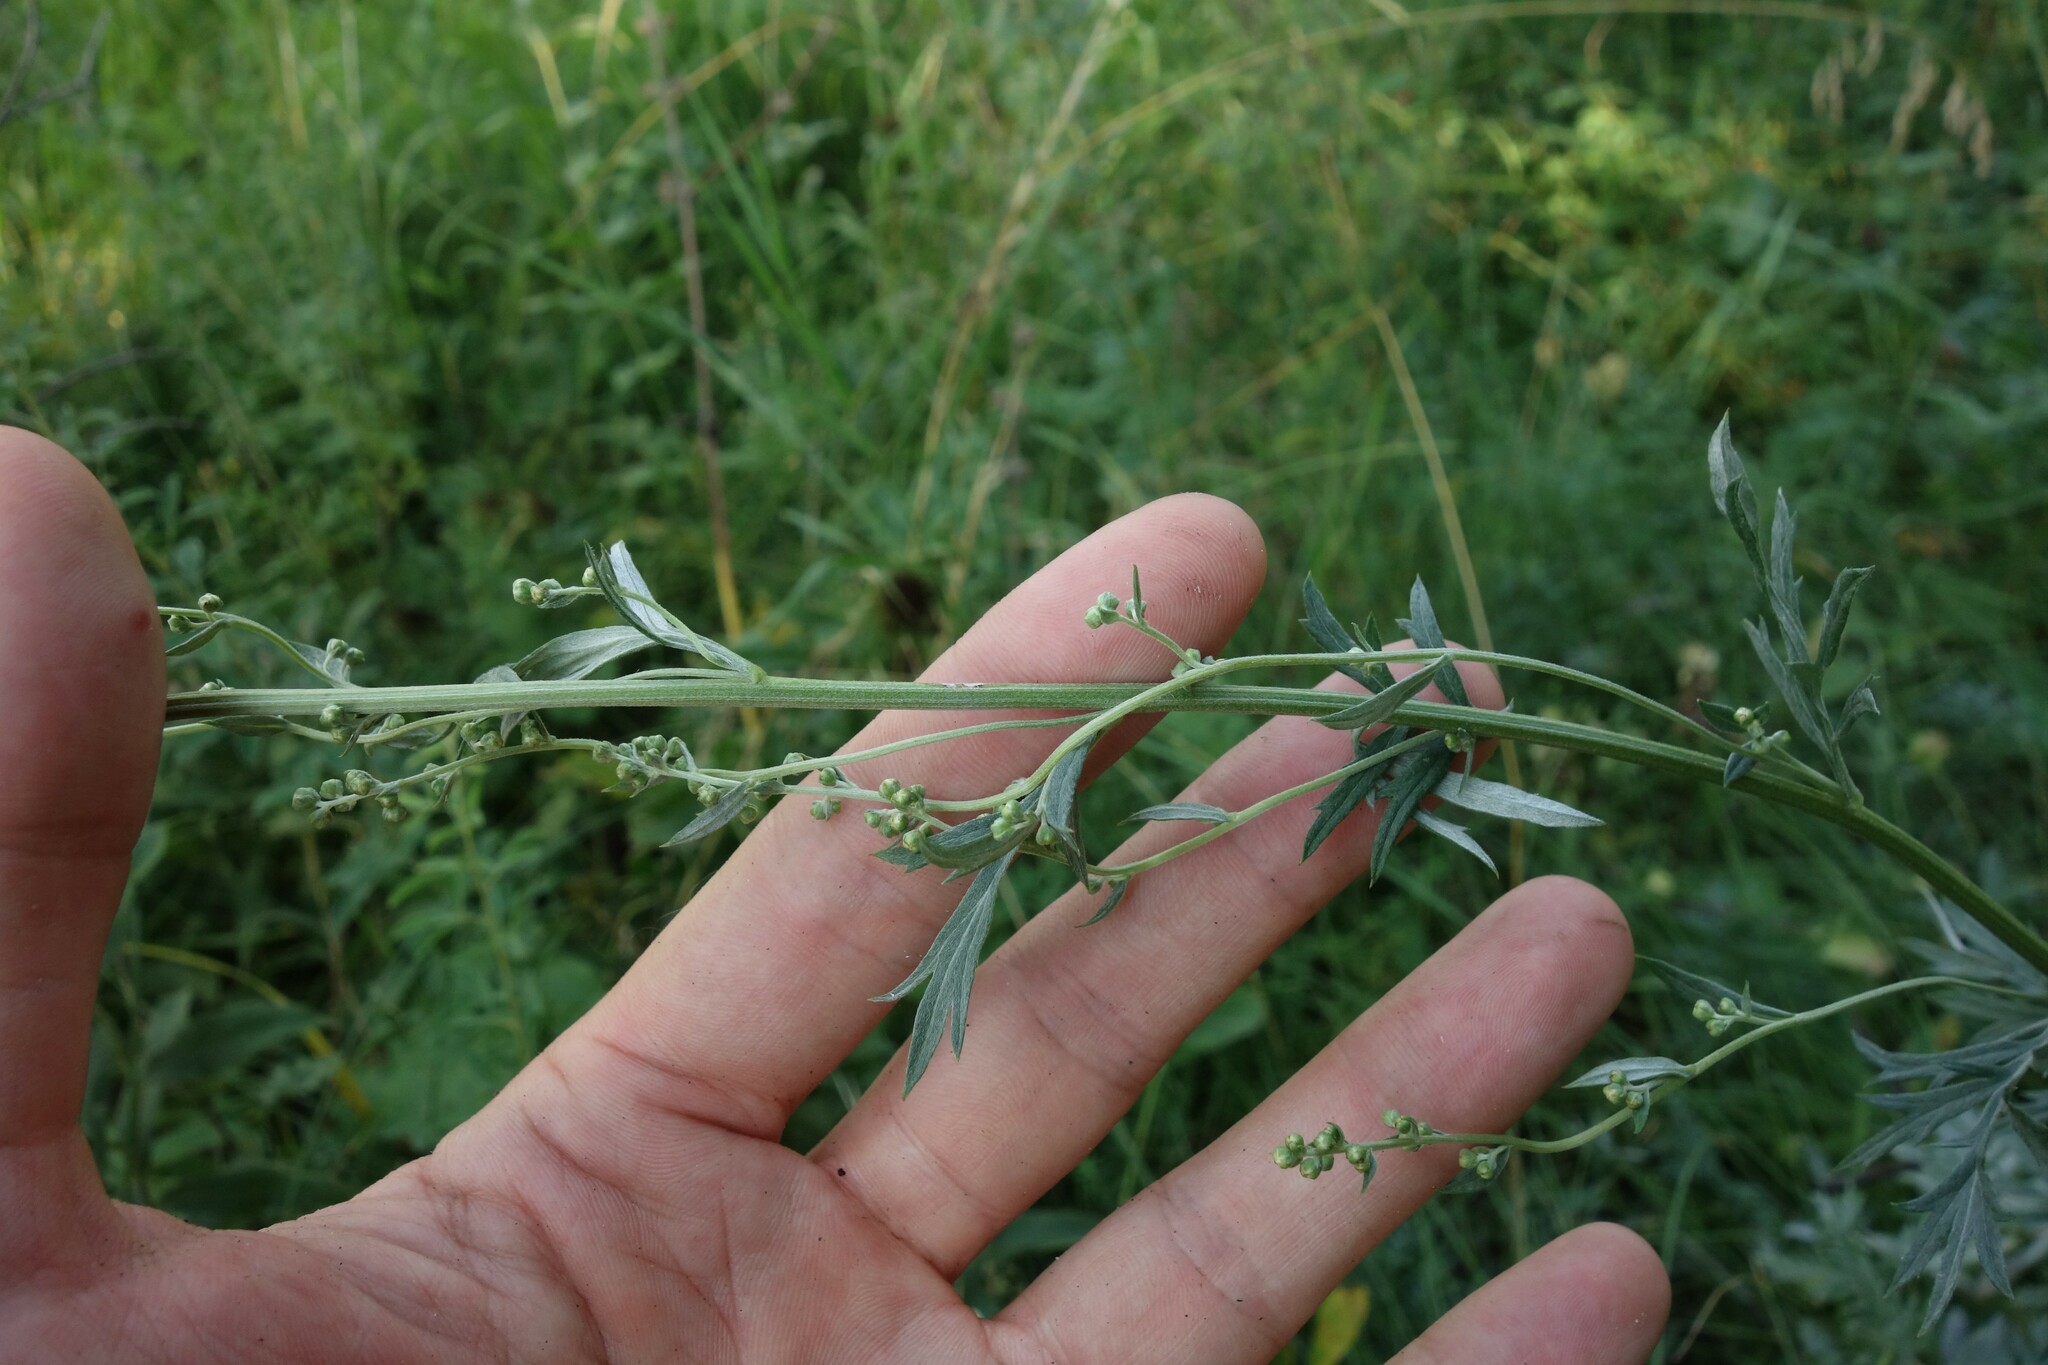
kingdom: Plantae
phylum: Tracheophyta
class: Magnoliopsida
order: Asterales
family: Asteraceae
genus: Artemisia
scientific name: Artemisia armeniaca
